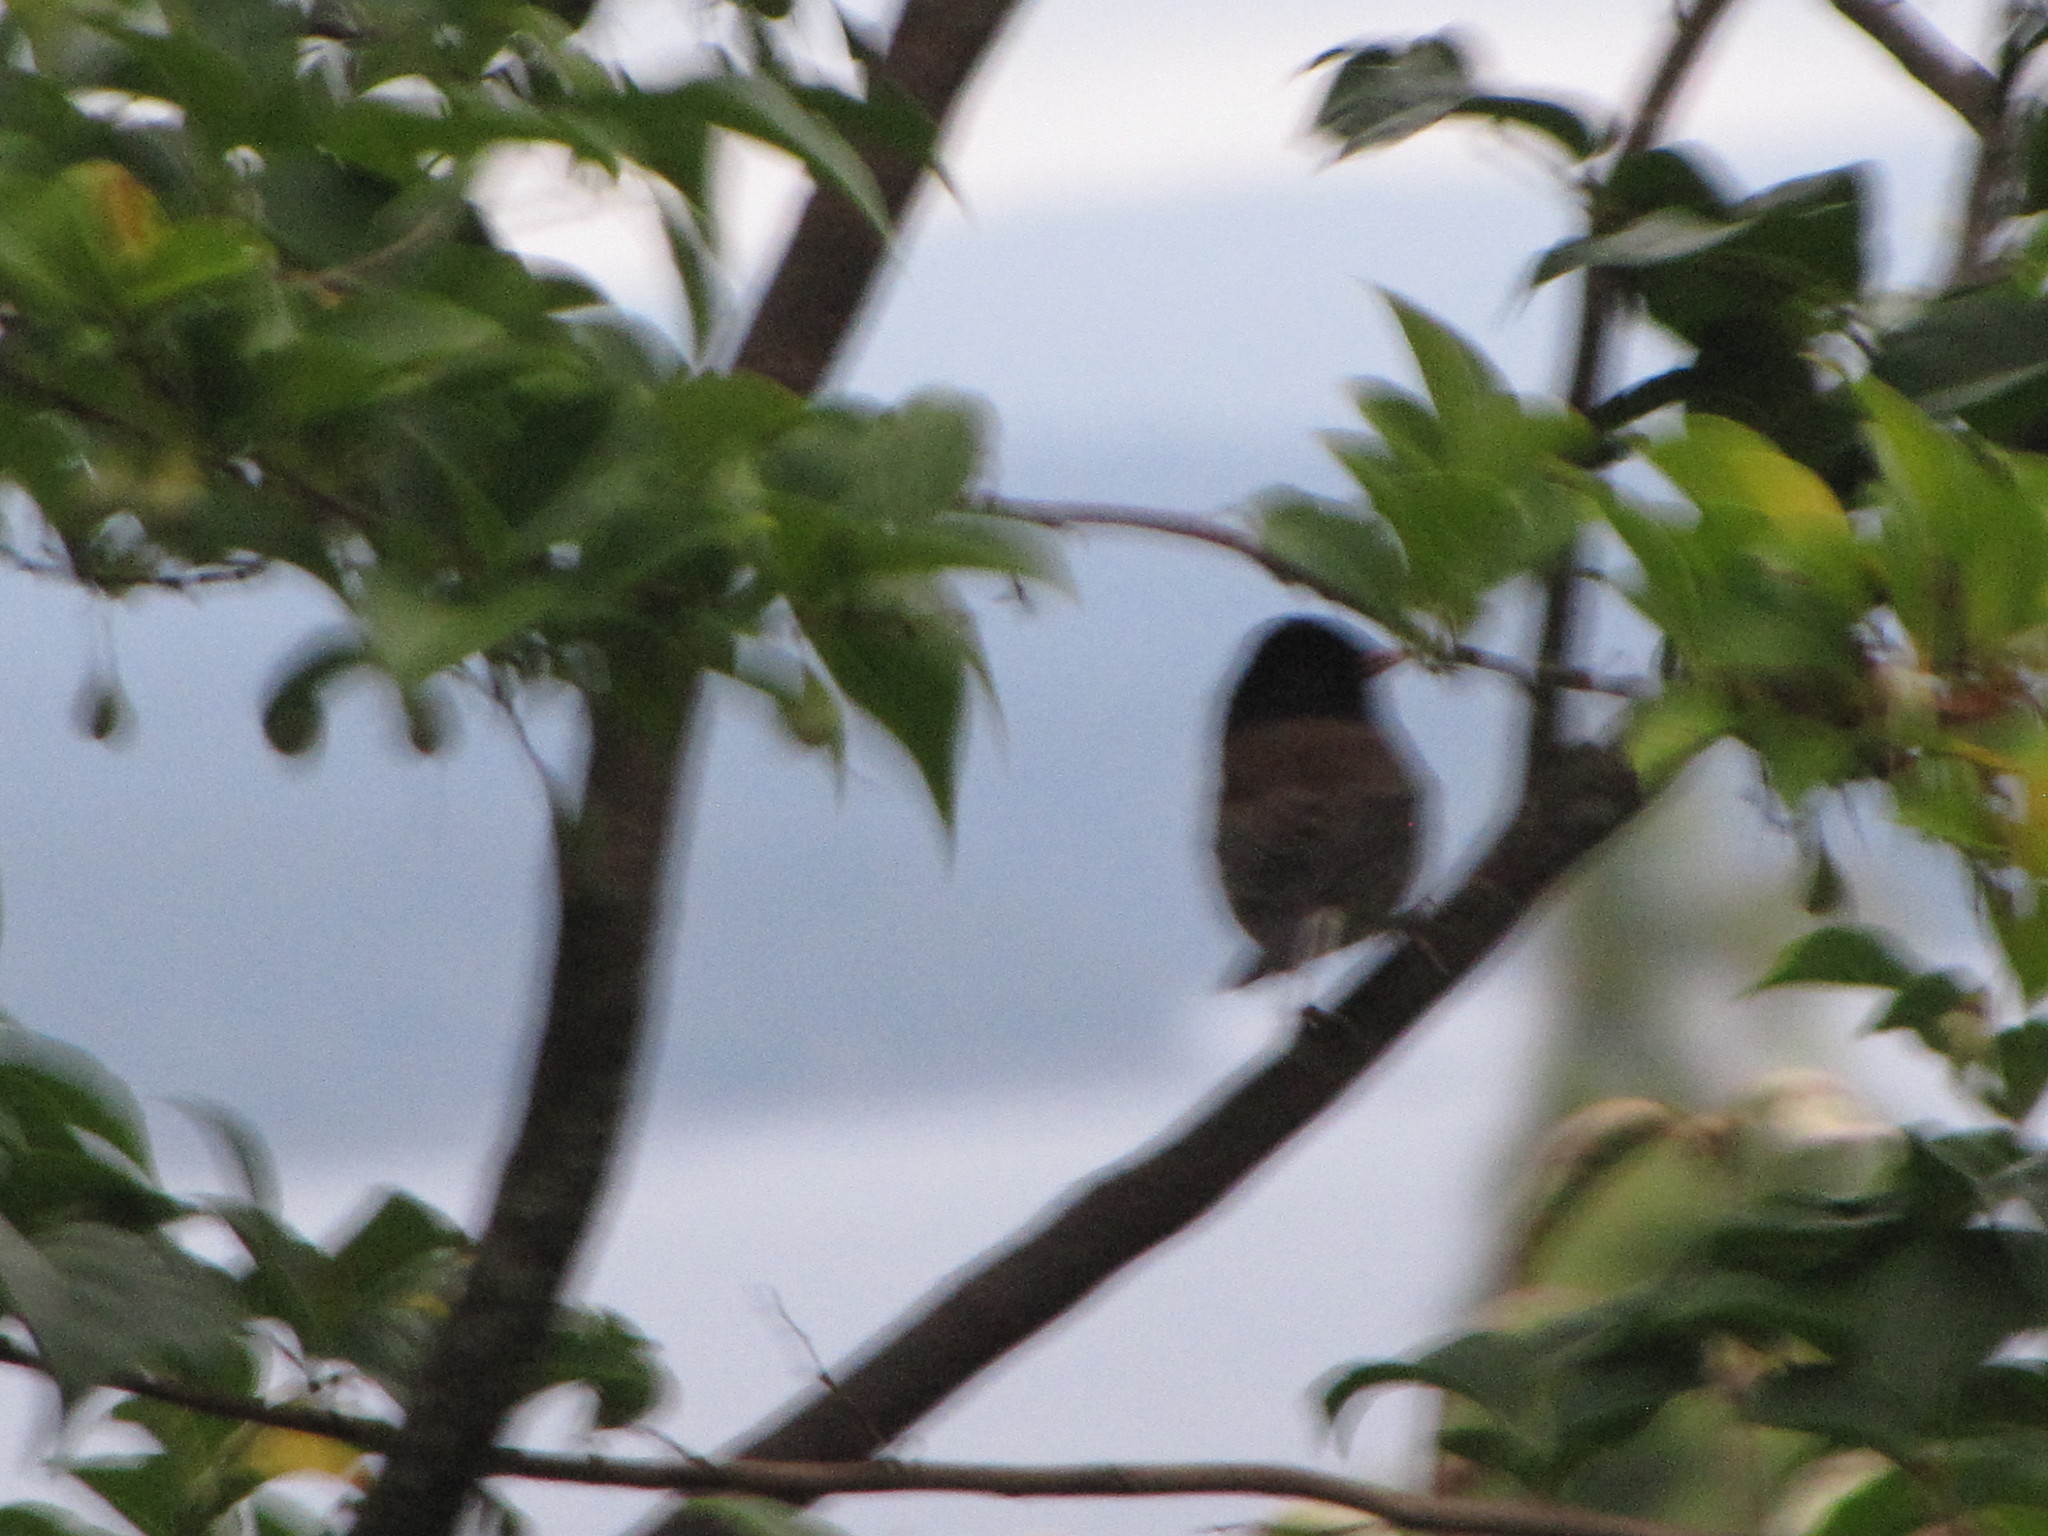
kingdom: Animalia
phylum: Chordata
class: Aves
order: Passeriformes
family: Passerellidae
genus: Junco
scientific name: Junco hyemalis
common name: Dark-eyed junco
